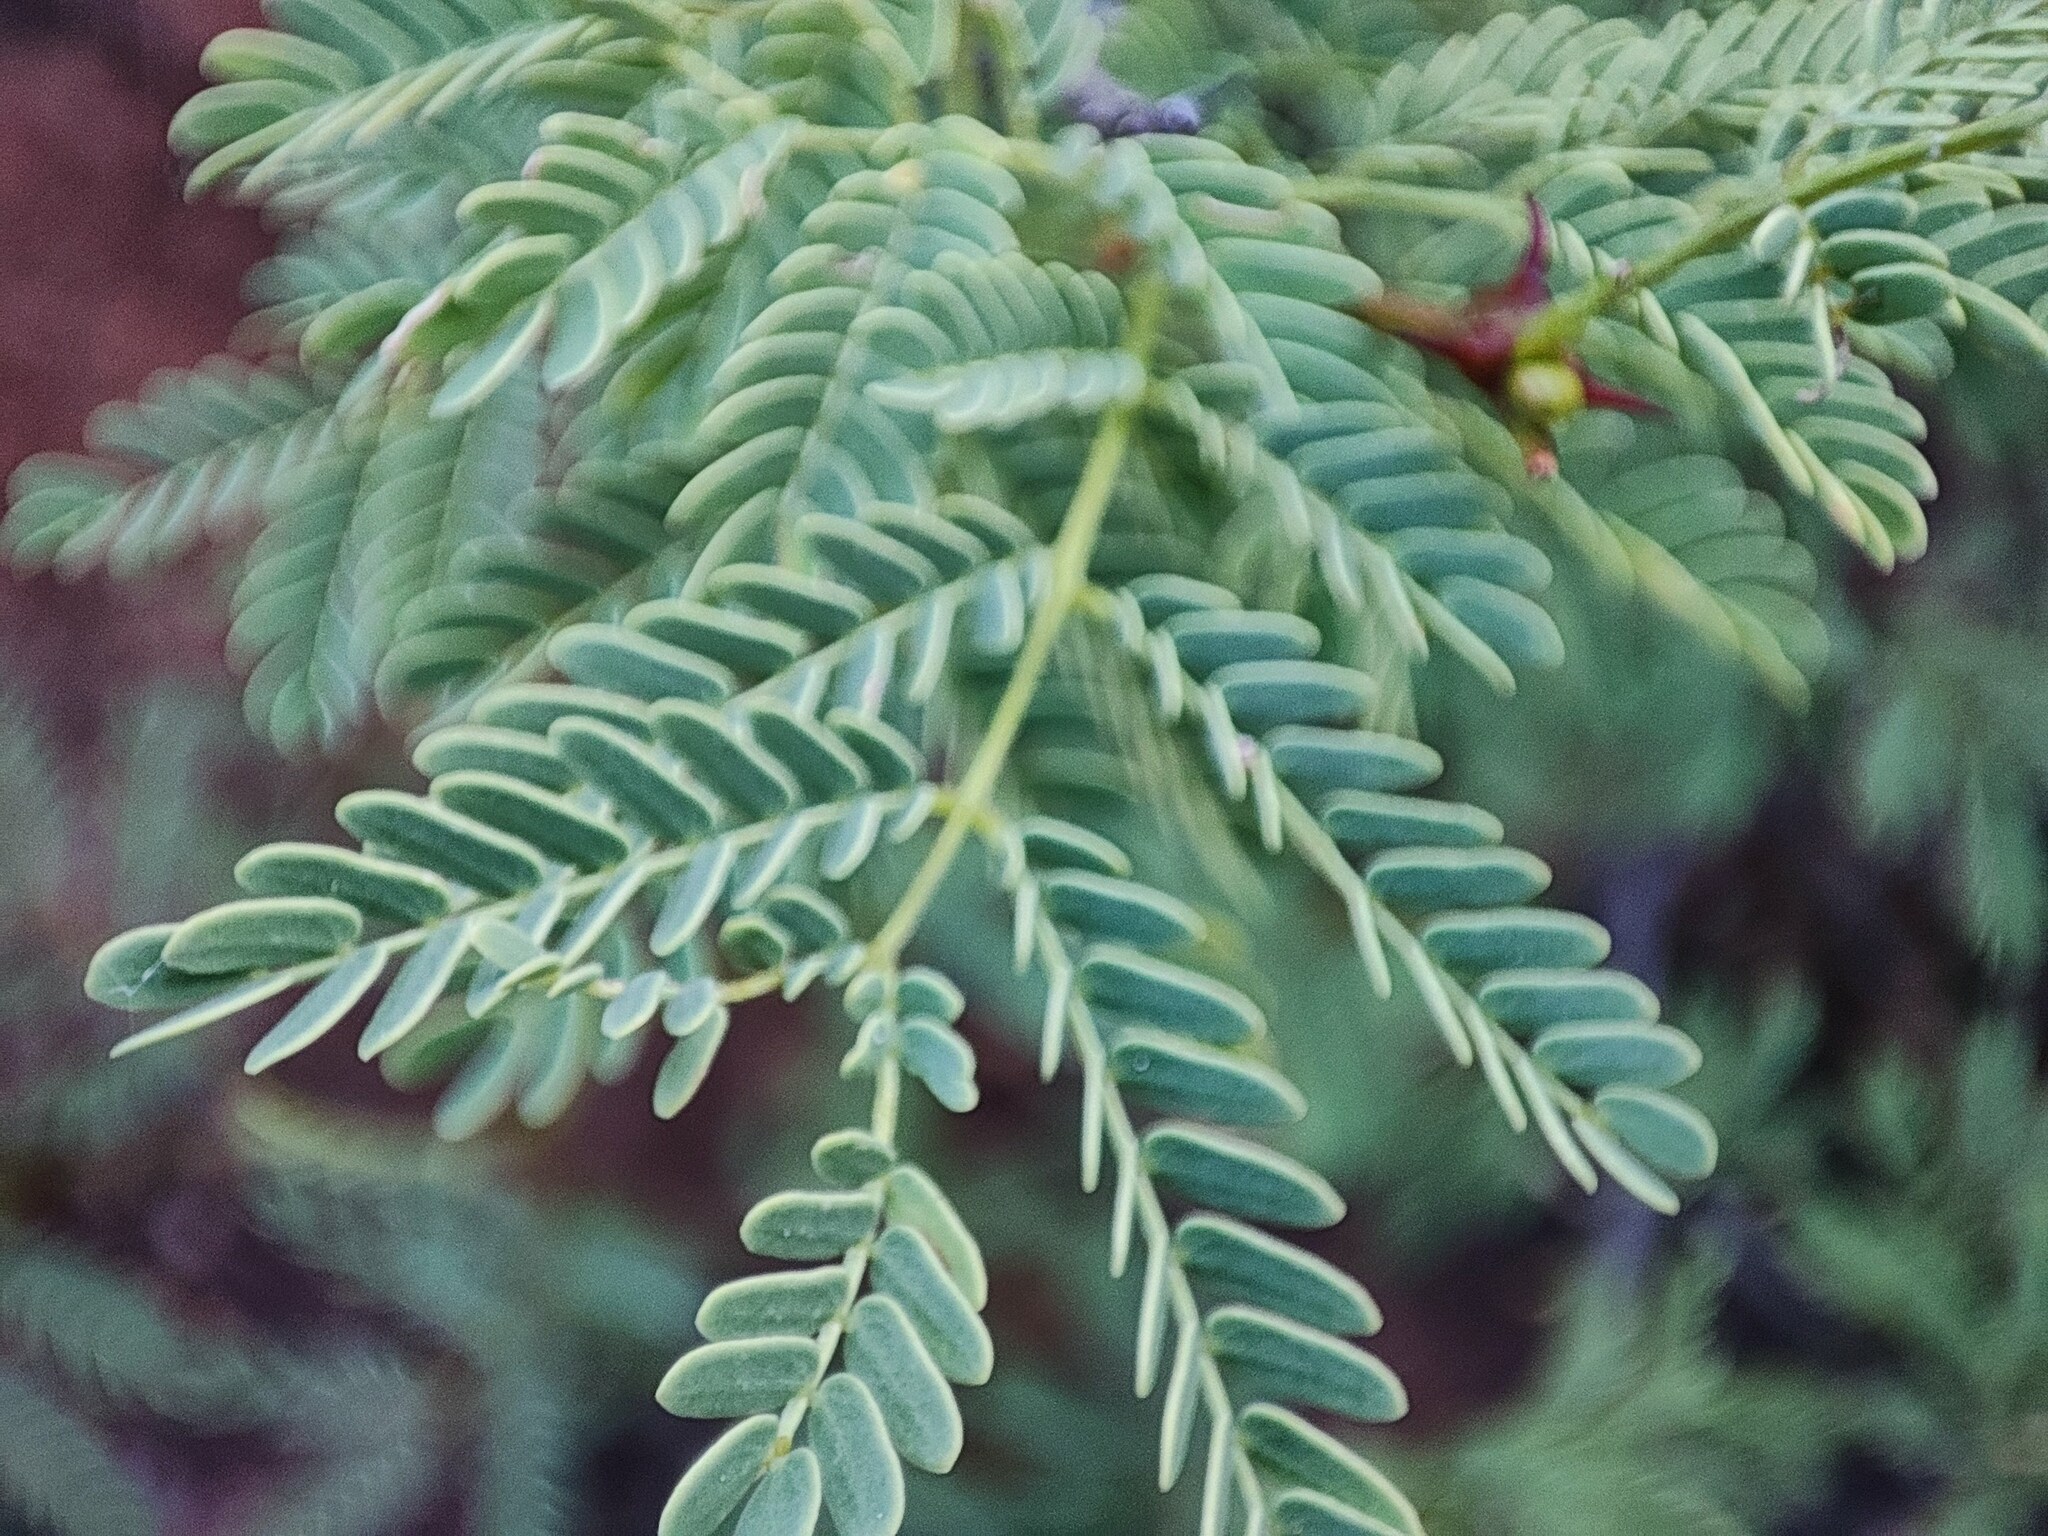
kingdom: Plantae
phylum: Tracheophyta
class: Magnoliopsida
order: Fabales
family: Fabaceae
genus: Senegalia
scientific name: Senegalia senegal
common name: Senegal-gum
